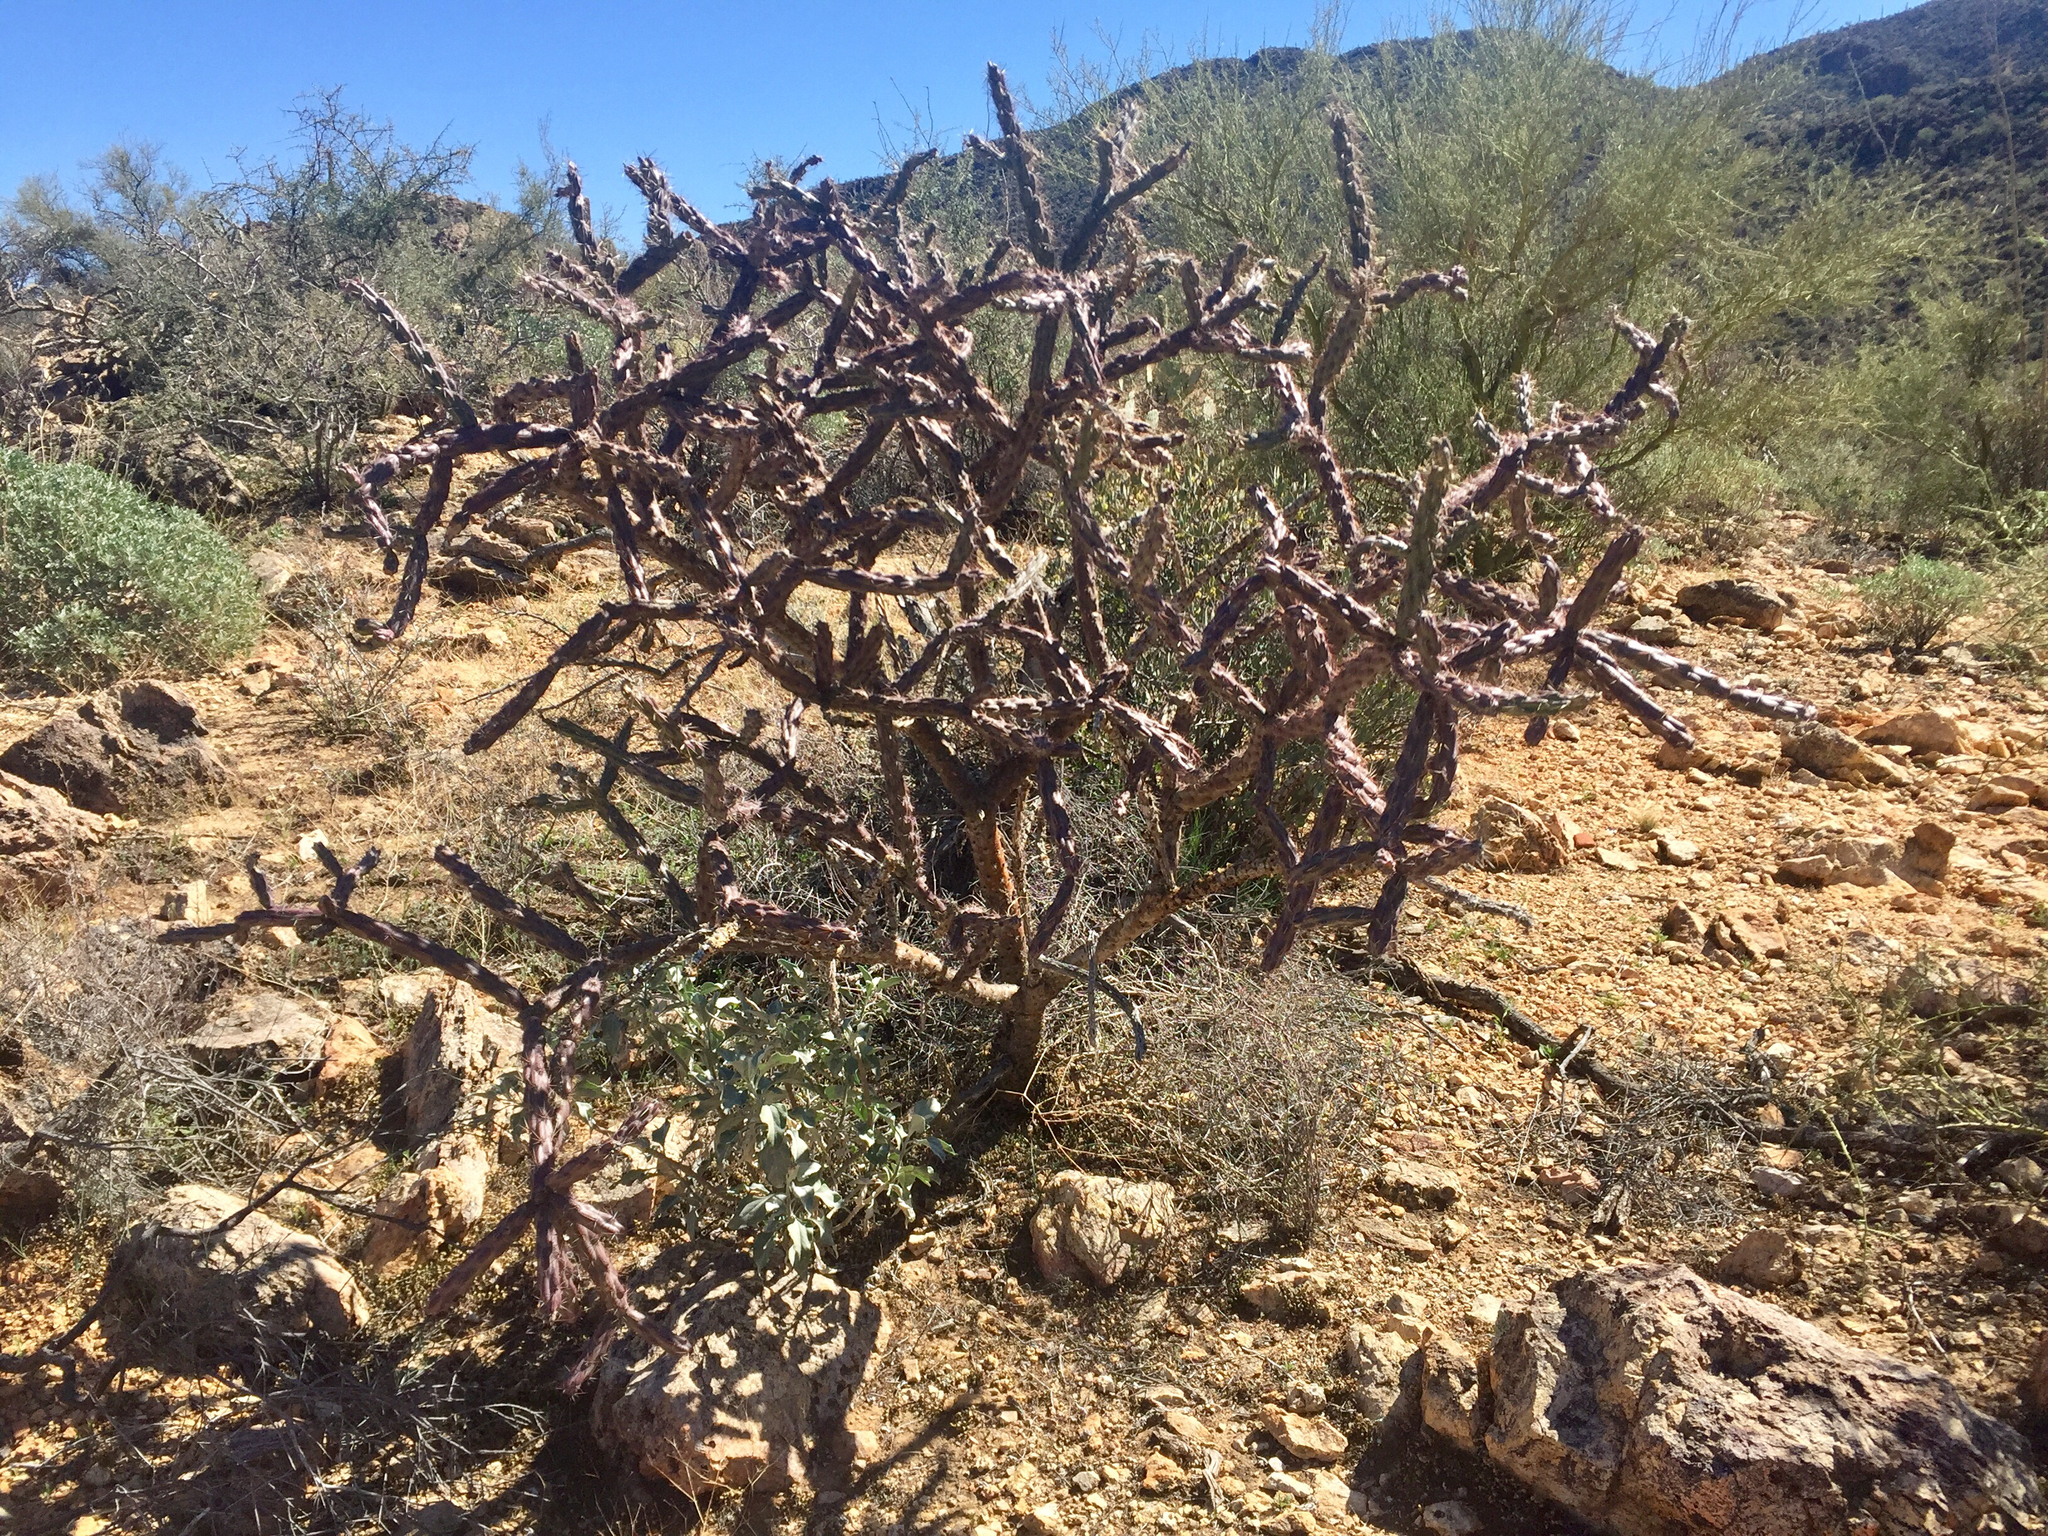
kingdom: Plantae
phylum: Tracheophyta
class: Magnoliopsida
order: Caryophyllales
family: Cactaceae
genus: Cylindropuntia
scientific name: Cylindropuntia thurberi
